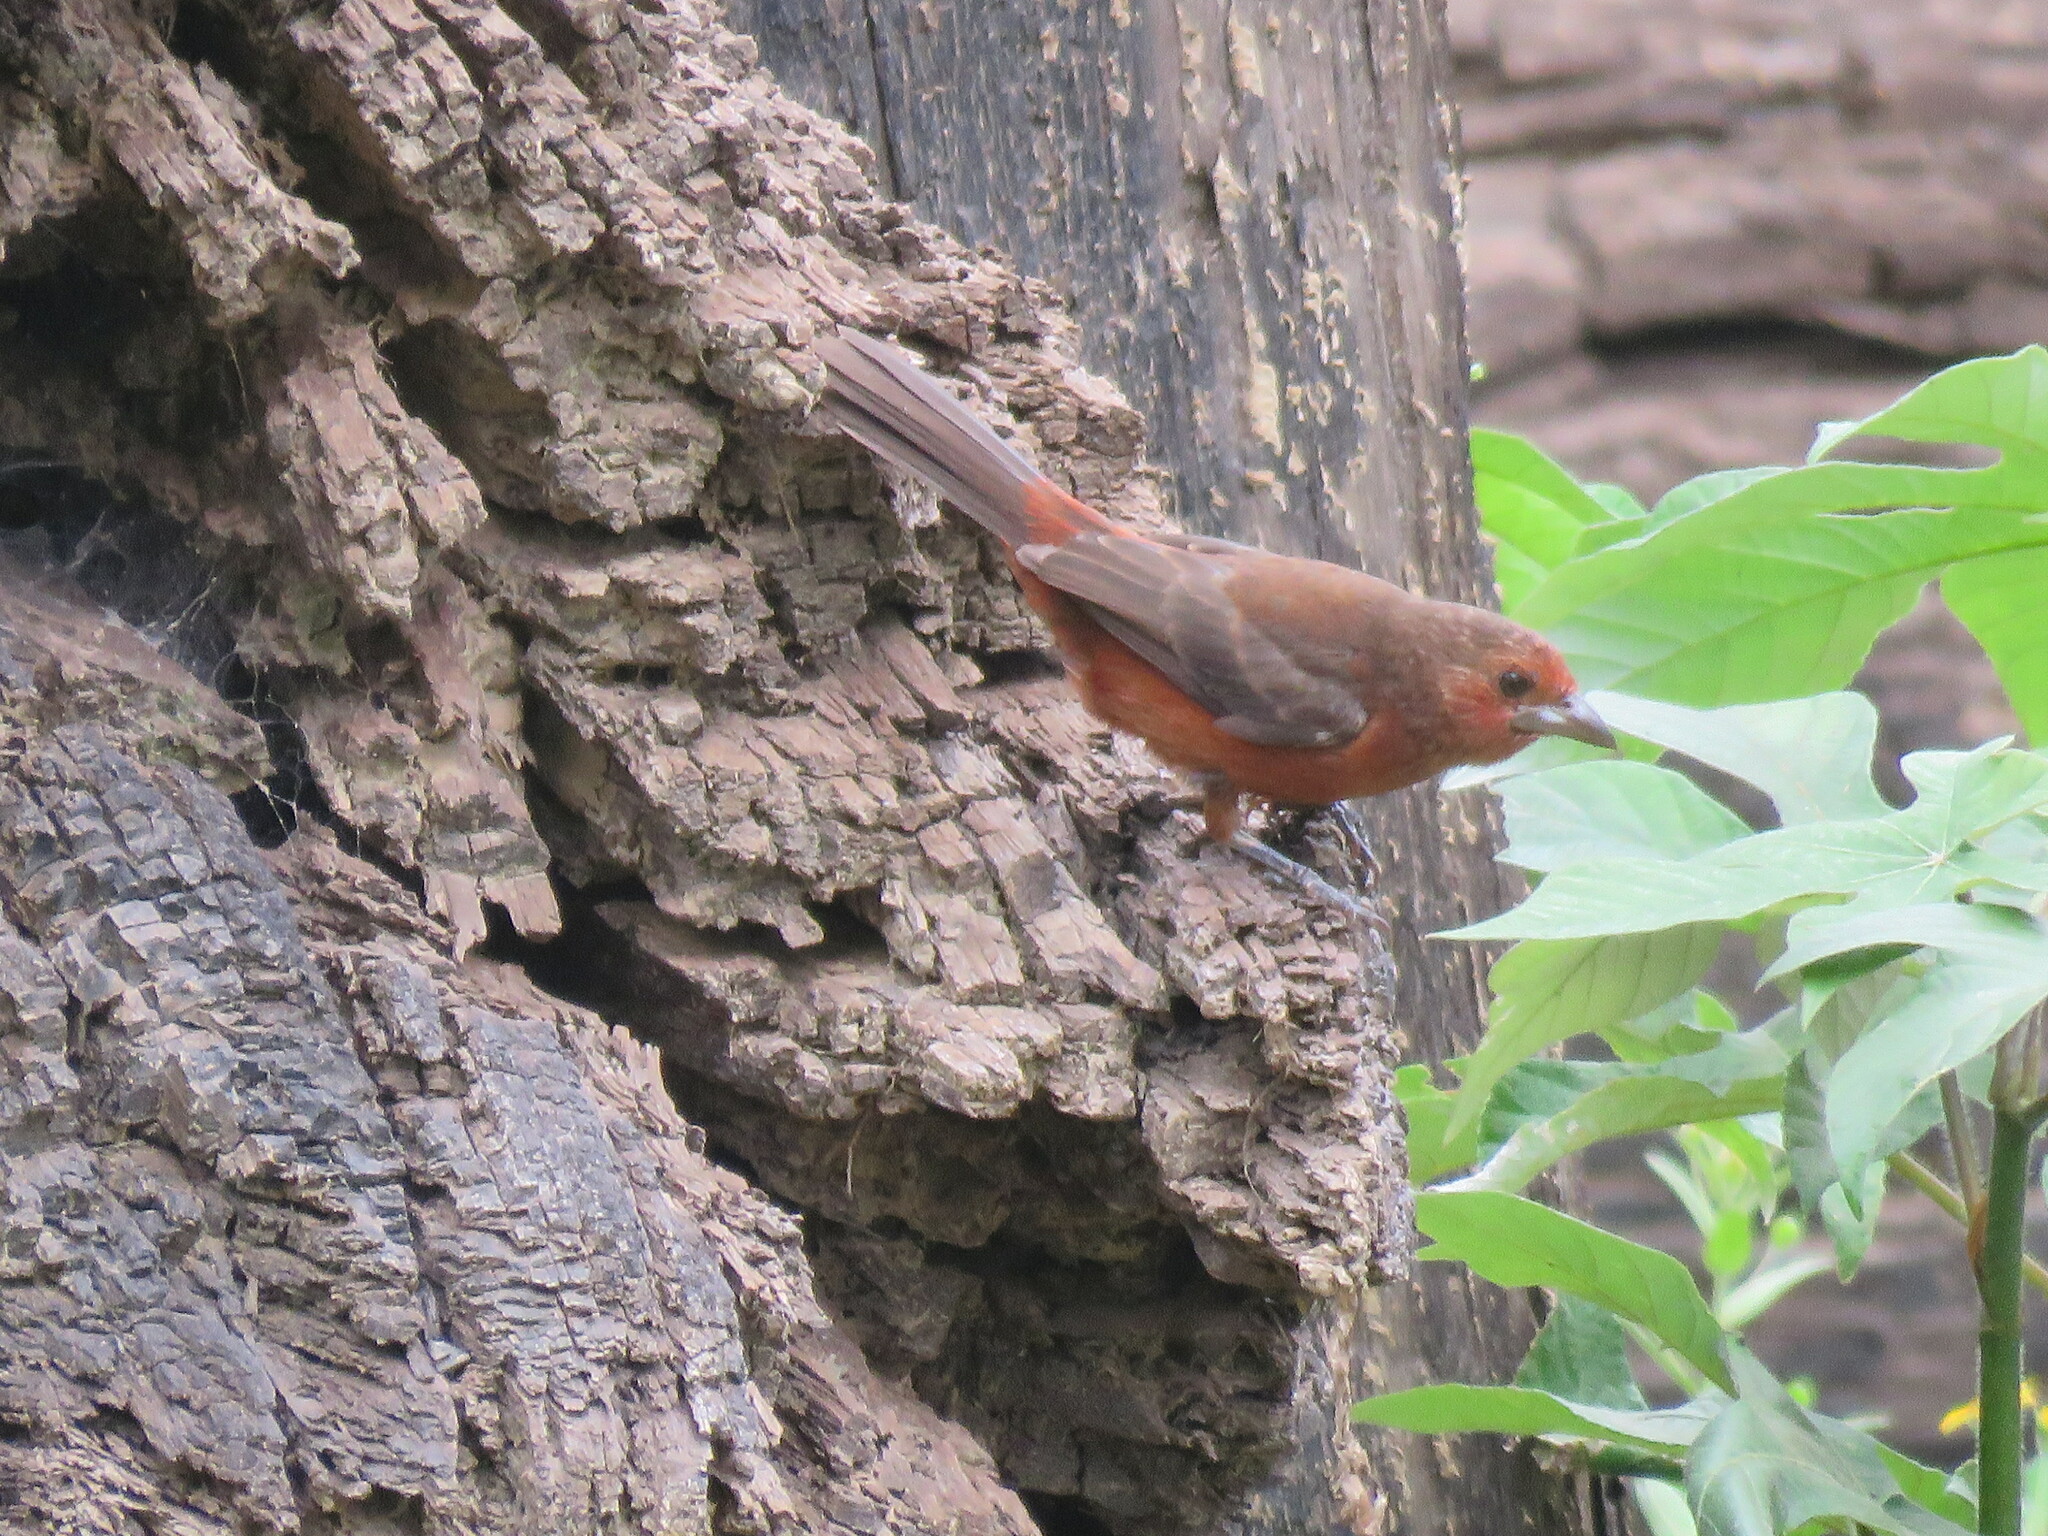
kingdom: Animalia
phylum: Chordata
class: Aves
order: Passeriformes
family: Thraupidae
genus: Ramphocelus
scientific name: Ramphocelus carbo
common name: Silver-beaked tanager
